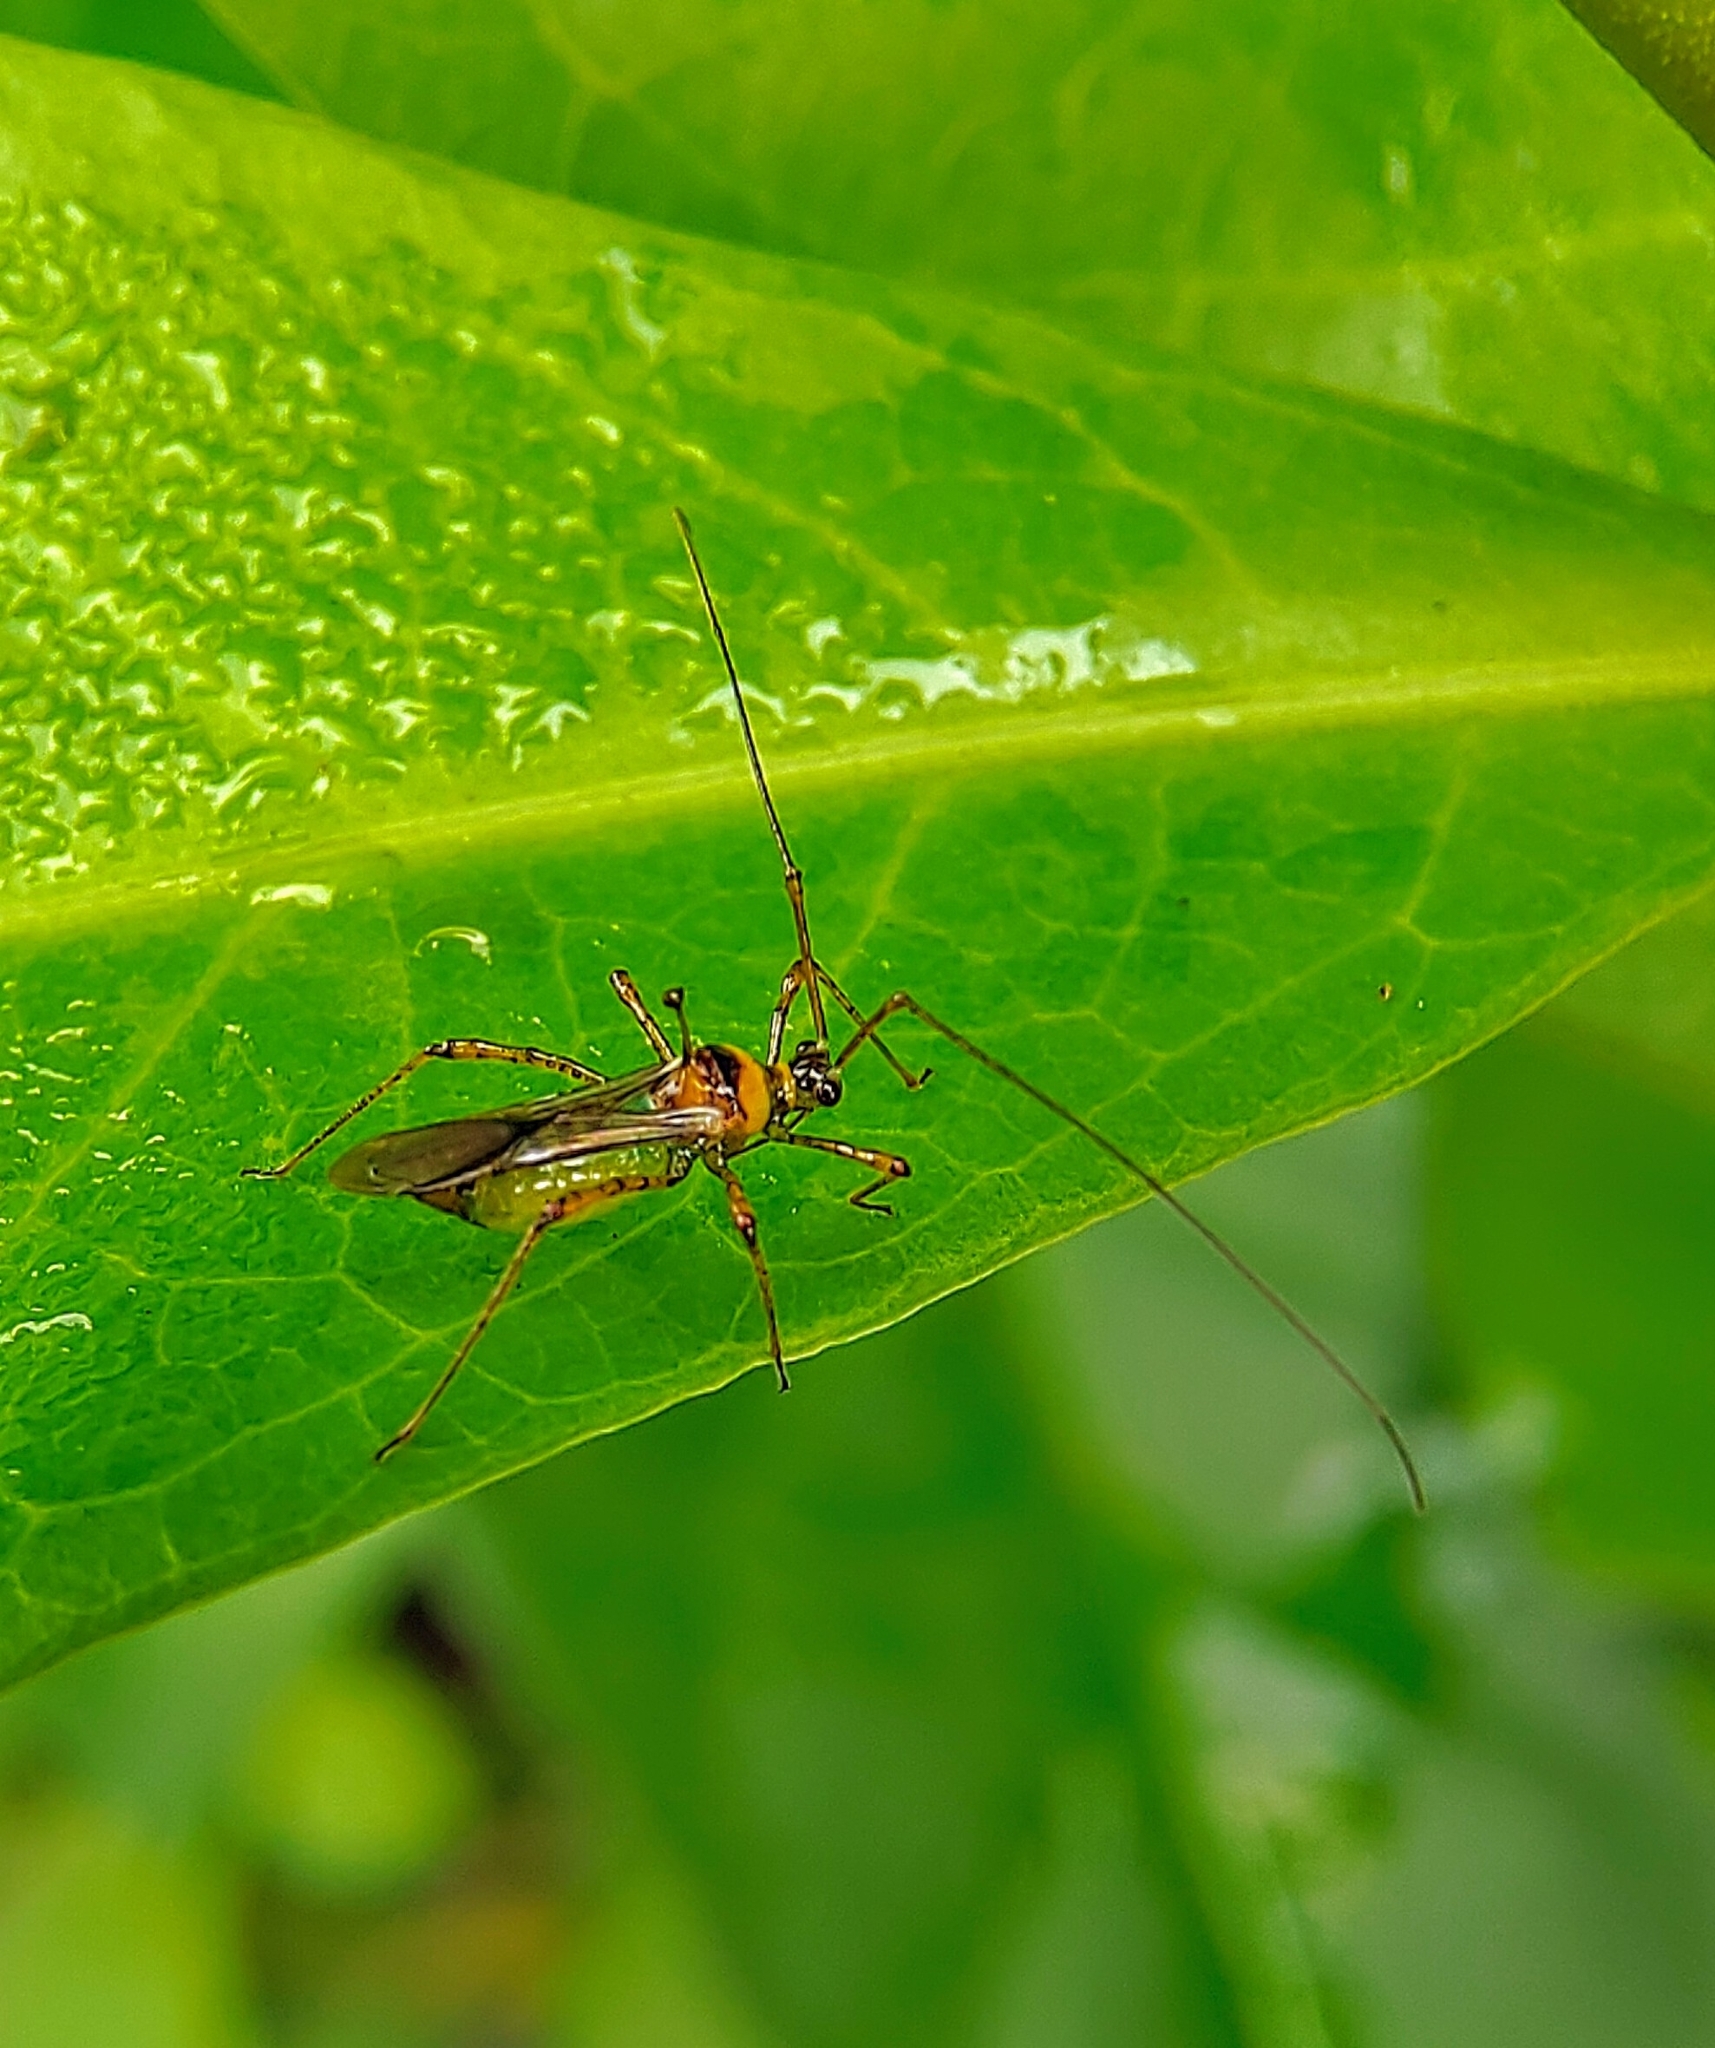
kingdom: Animalia
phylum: Arthropoda
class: Insecta
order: Hemiptera
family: Miridae
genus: Helopeltis
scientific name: Helopeltis theivora
